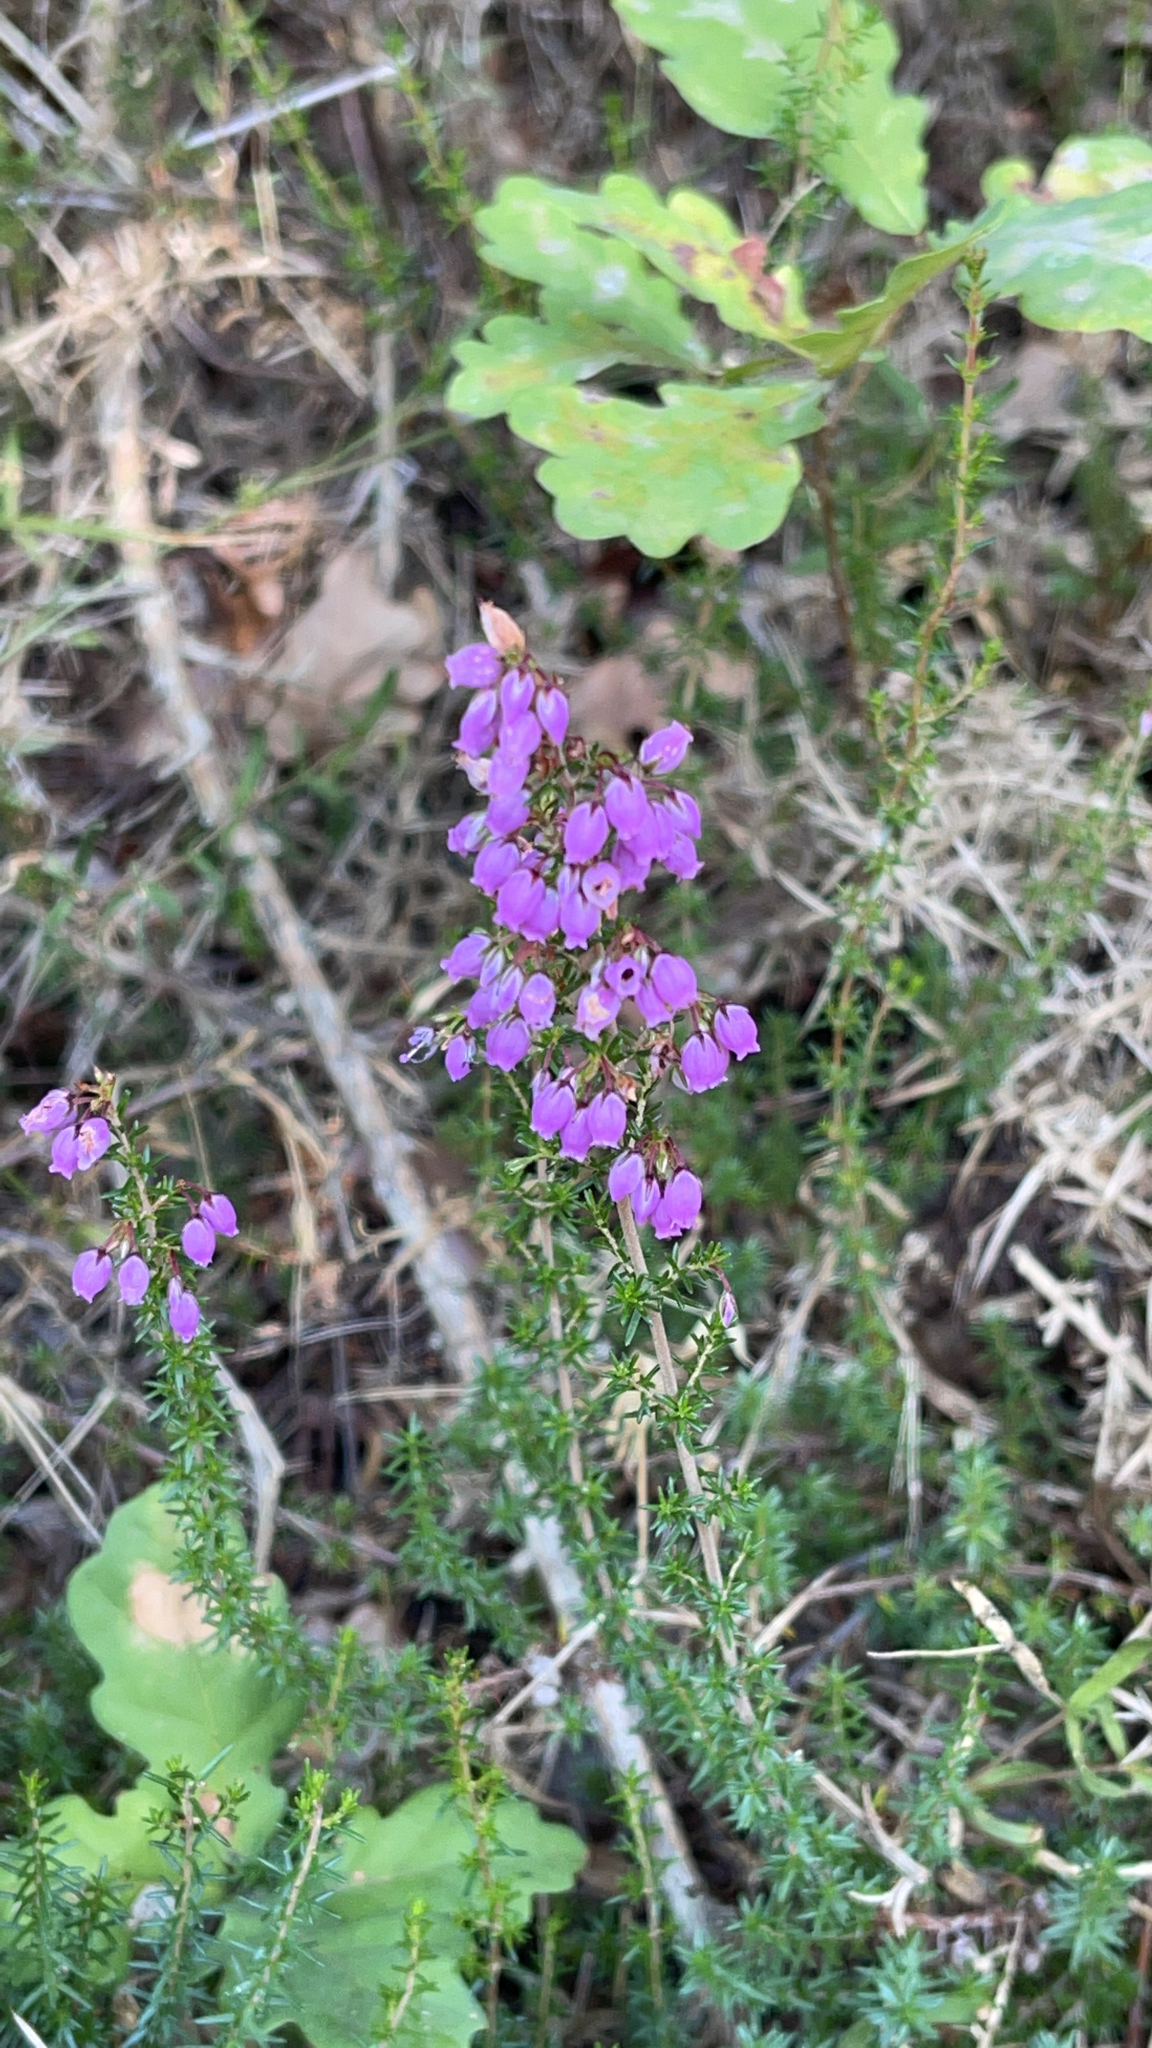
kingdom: Plantae
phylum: Tracheophyta
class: Magnoliopsida
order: Ericales
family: Ericaceae
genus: Erica
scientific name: Erica cinerea
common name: Bell heather
